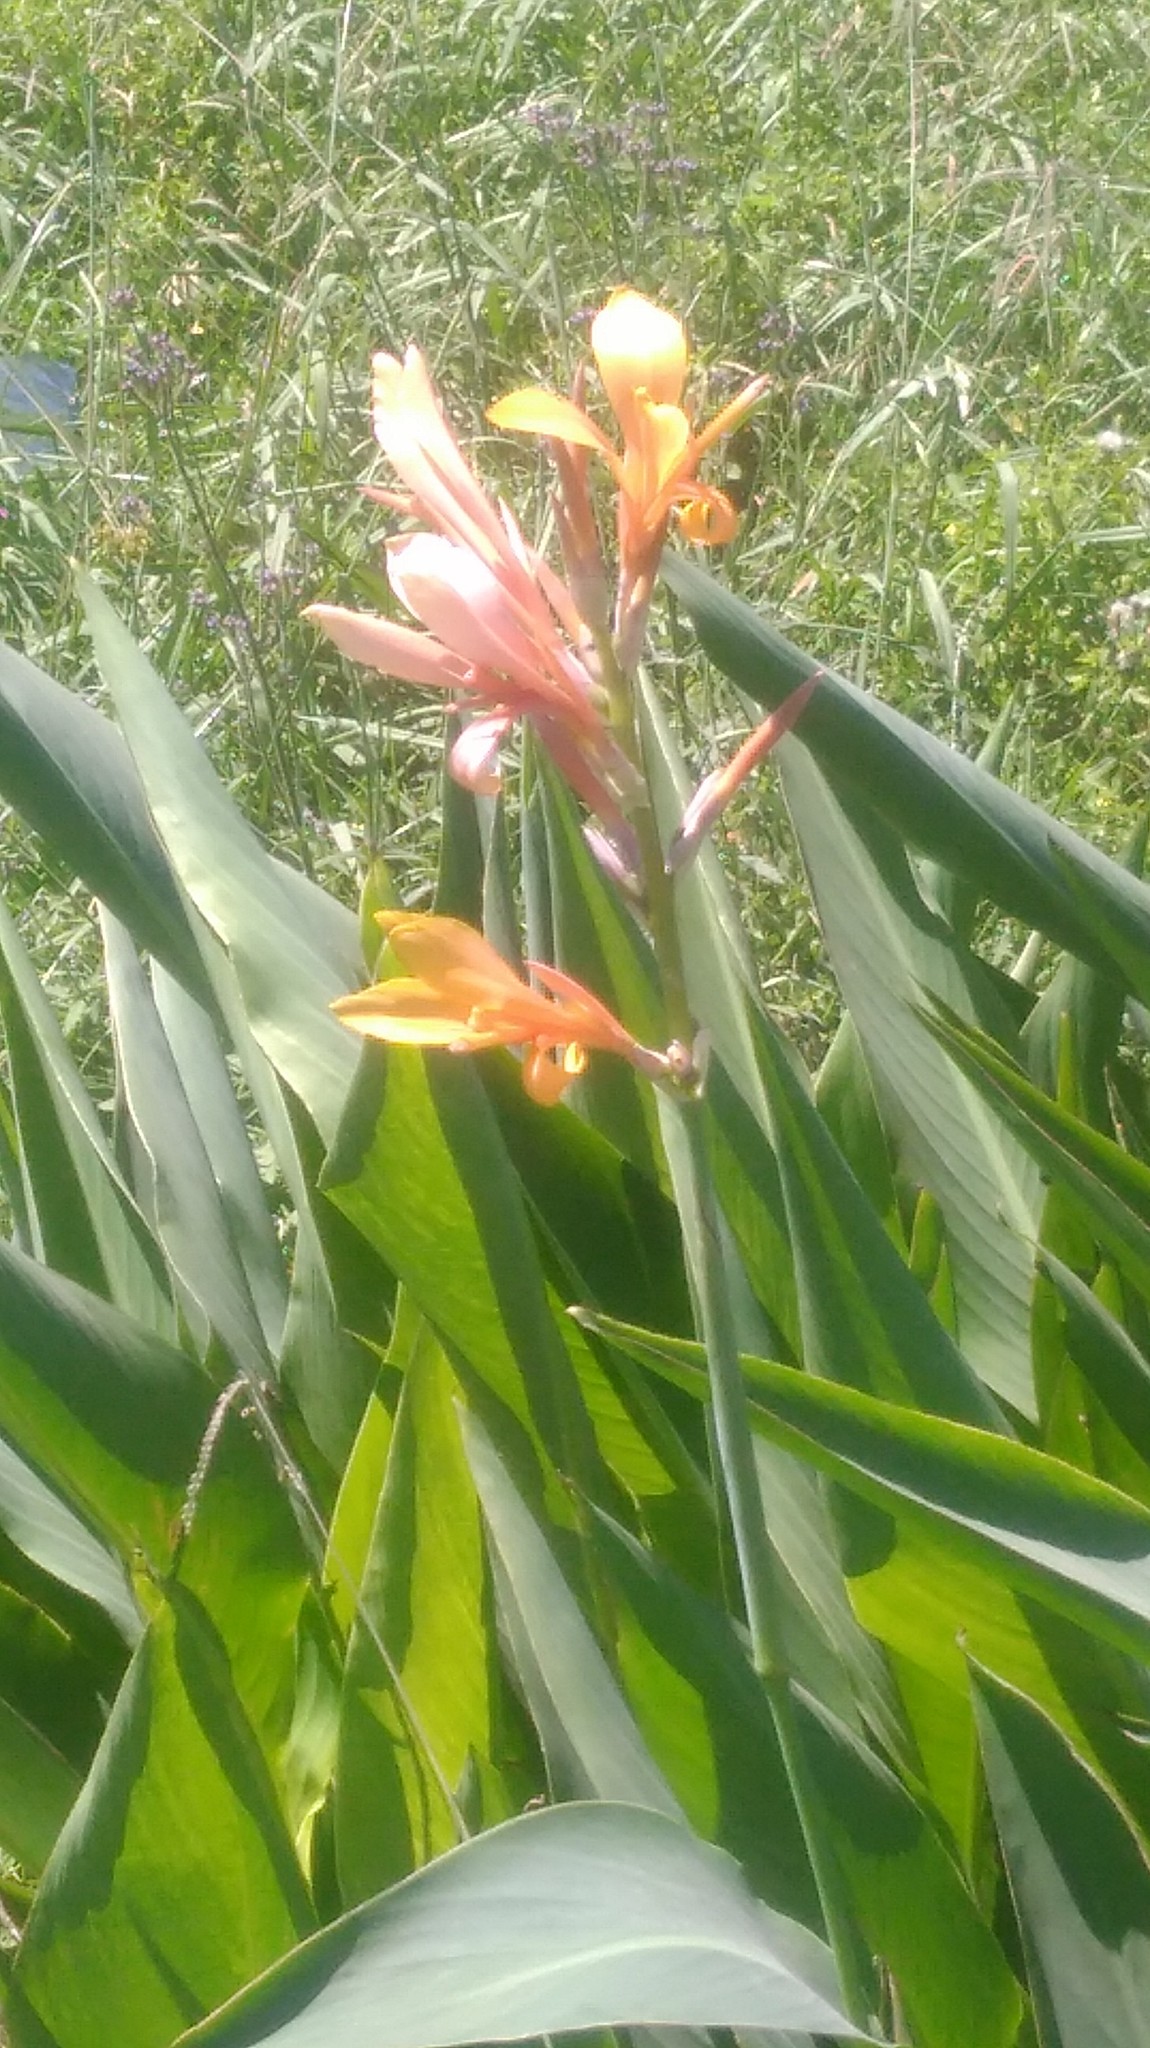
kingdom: Plantae
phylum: Tracheophyta
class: Liliopsida
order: Zingiberales
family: Cannaceae
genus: Canna
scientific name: Canna indica
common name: Indian shot
